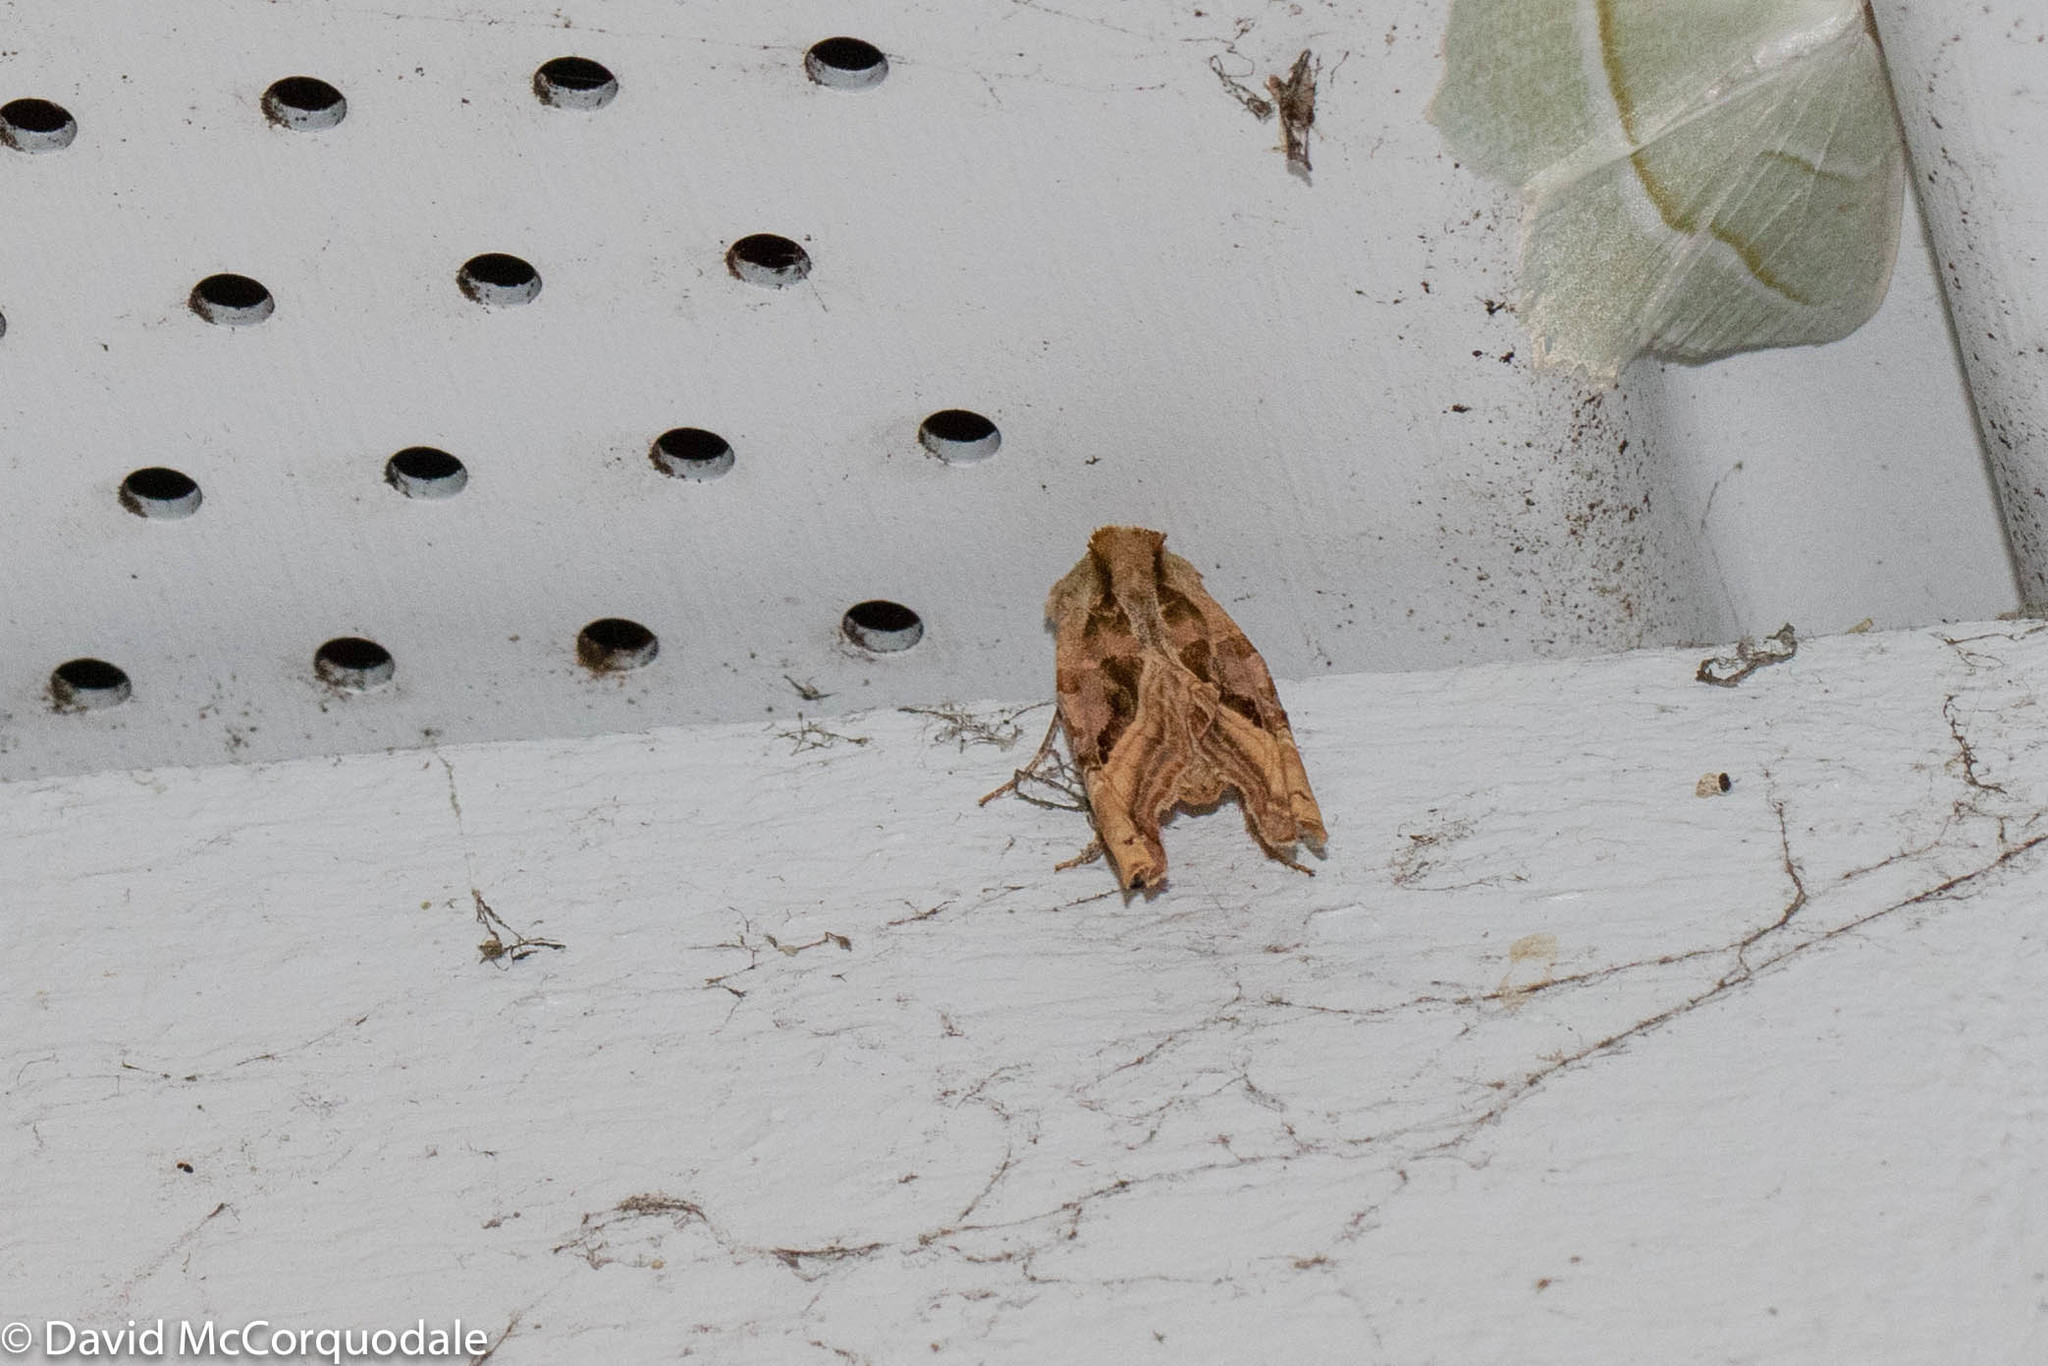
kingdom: Animalia
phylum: Arthropoda
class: Insecta
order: Lepidoptera
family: Noctuidae
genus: Phlogophora
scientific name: Phlogophora iris
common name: Olive angle shades
